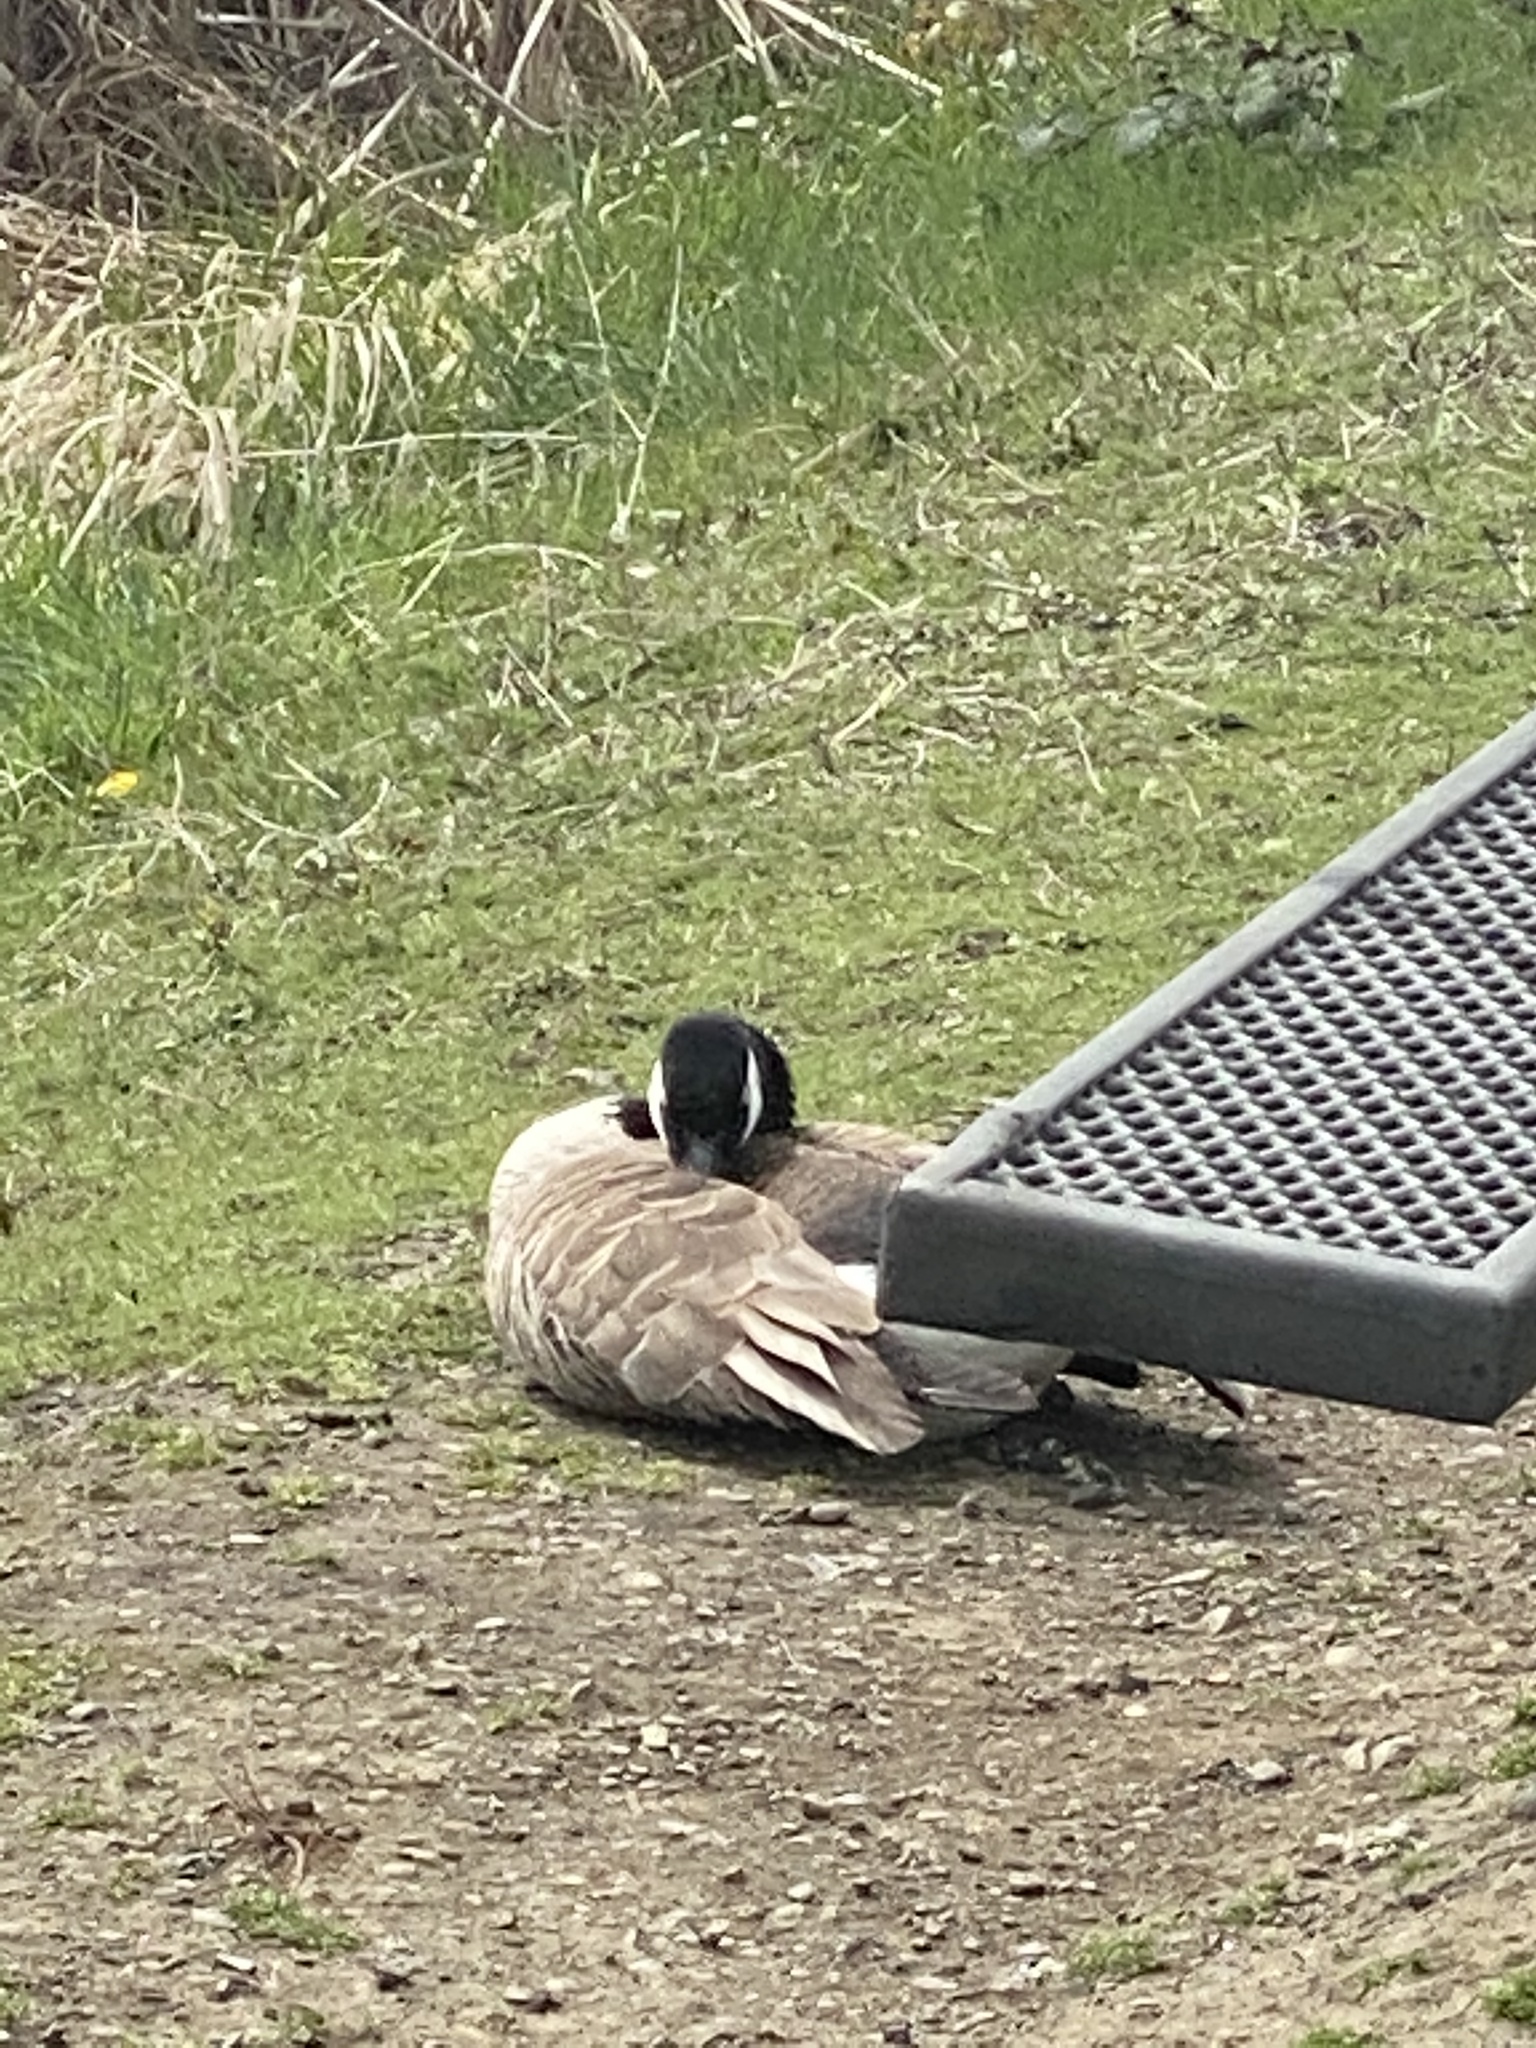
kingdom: Animalia
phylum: Chordata
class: Aves
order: Anseriformes
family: Anatidae
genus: Branta
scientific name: Branta canadensis
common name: Canada goose
